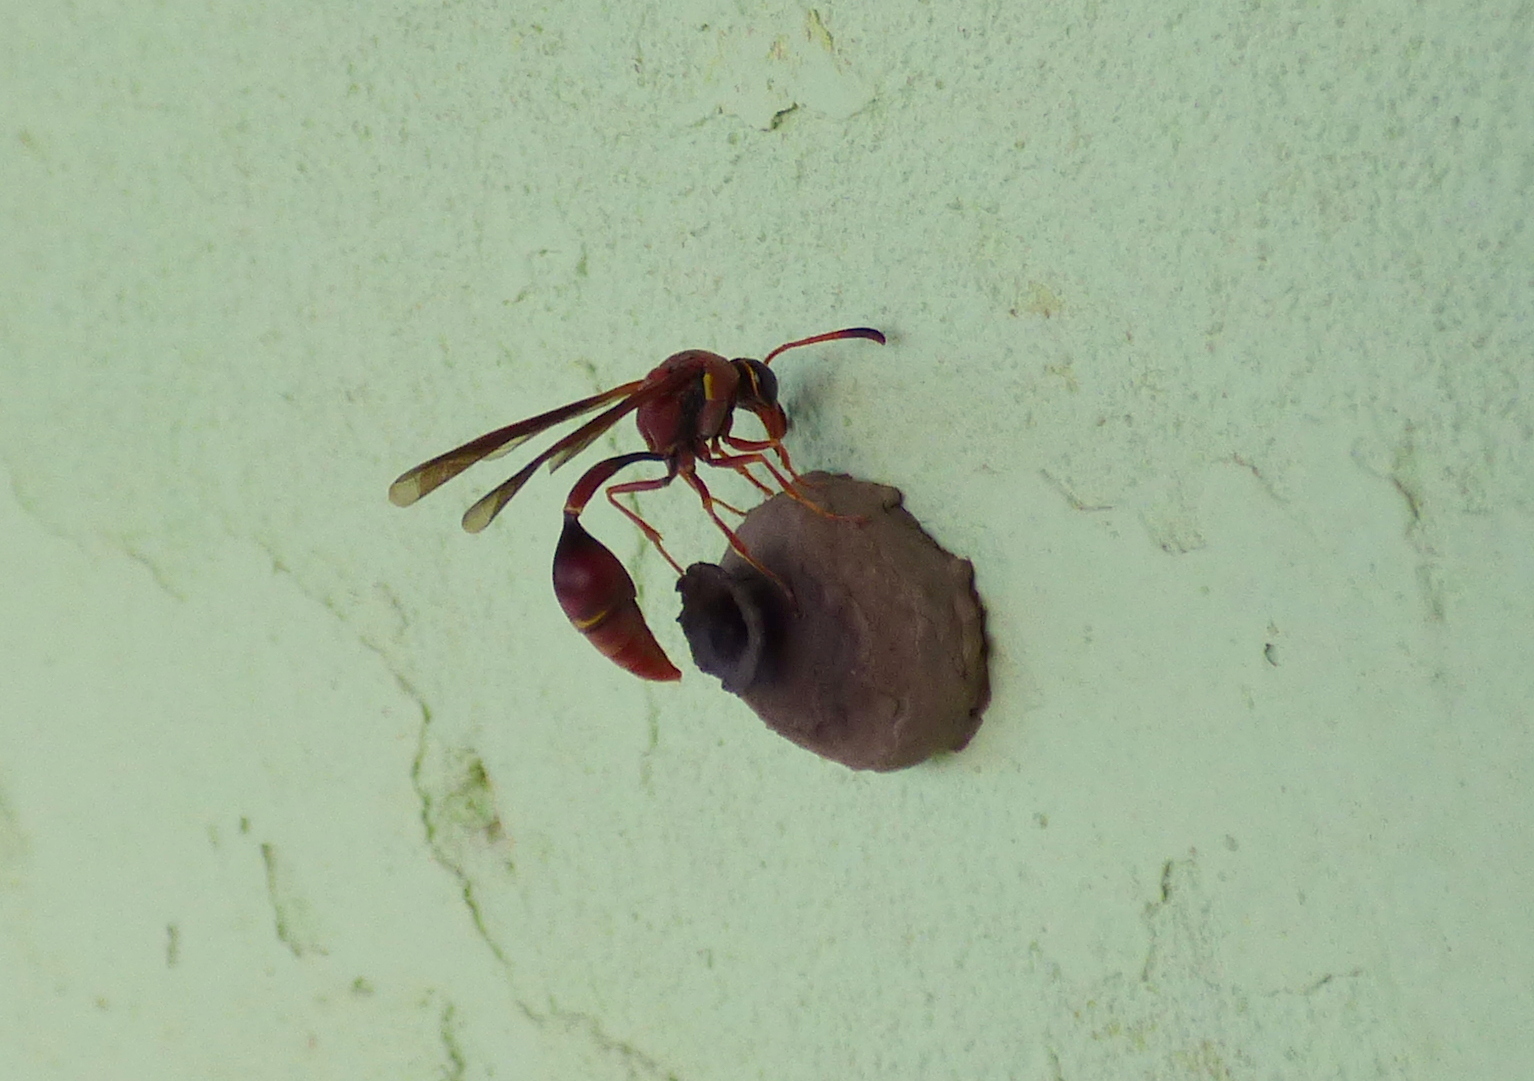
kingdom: Animalia
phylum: Arthropoda
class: Insecta
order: Hymenoptera
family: Eumenidae
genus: Zeta
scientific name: Zeta argillaceum
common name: Potter wasp
